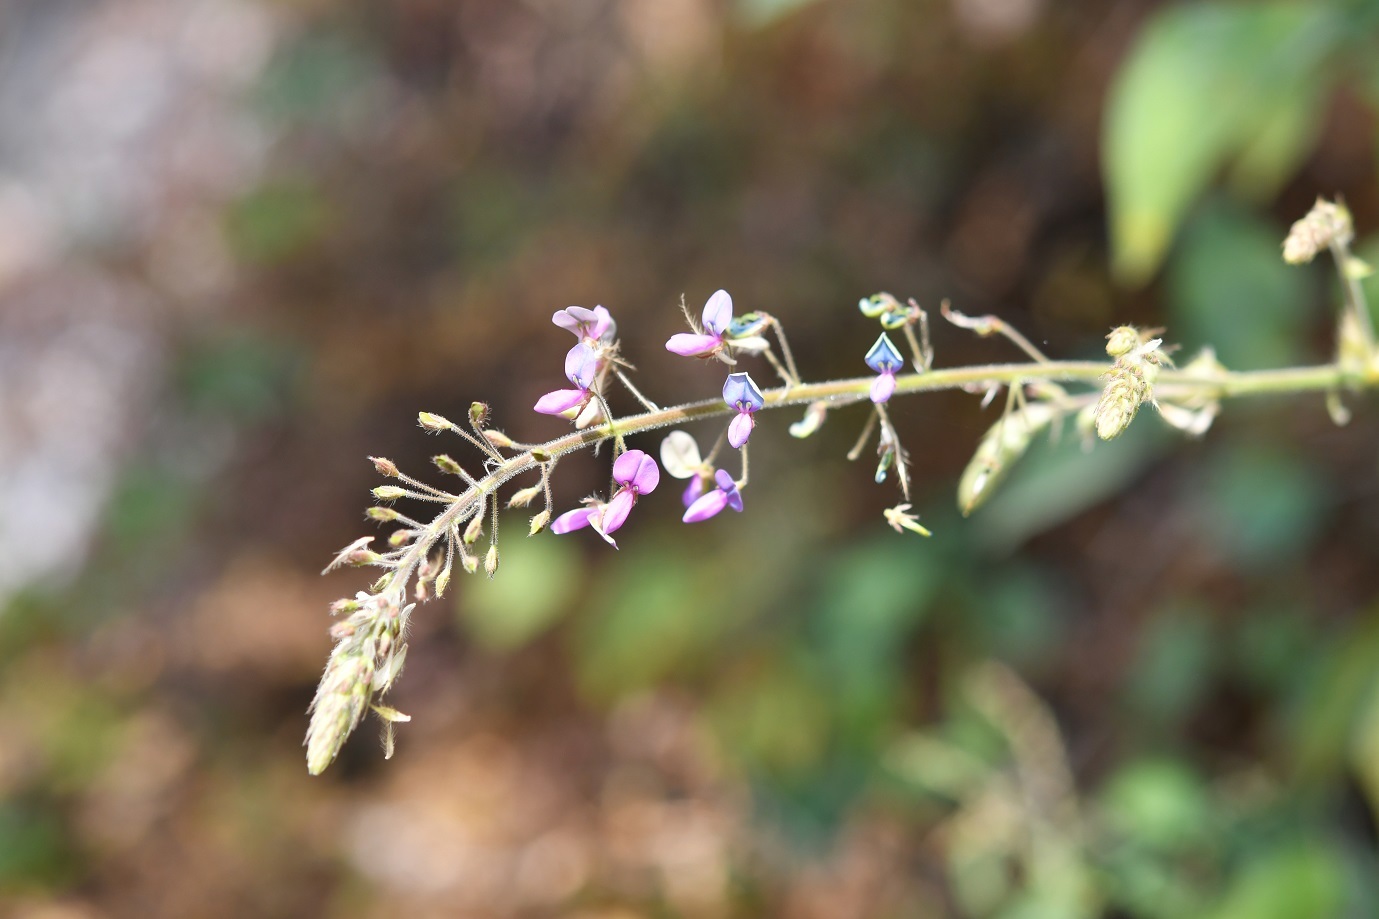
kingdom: Plantae
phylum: Tracheophyta
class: Magnoliopsida
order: Fabales
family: Fabaceae
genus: Grona
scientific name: Grona adscendens
